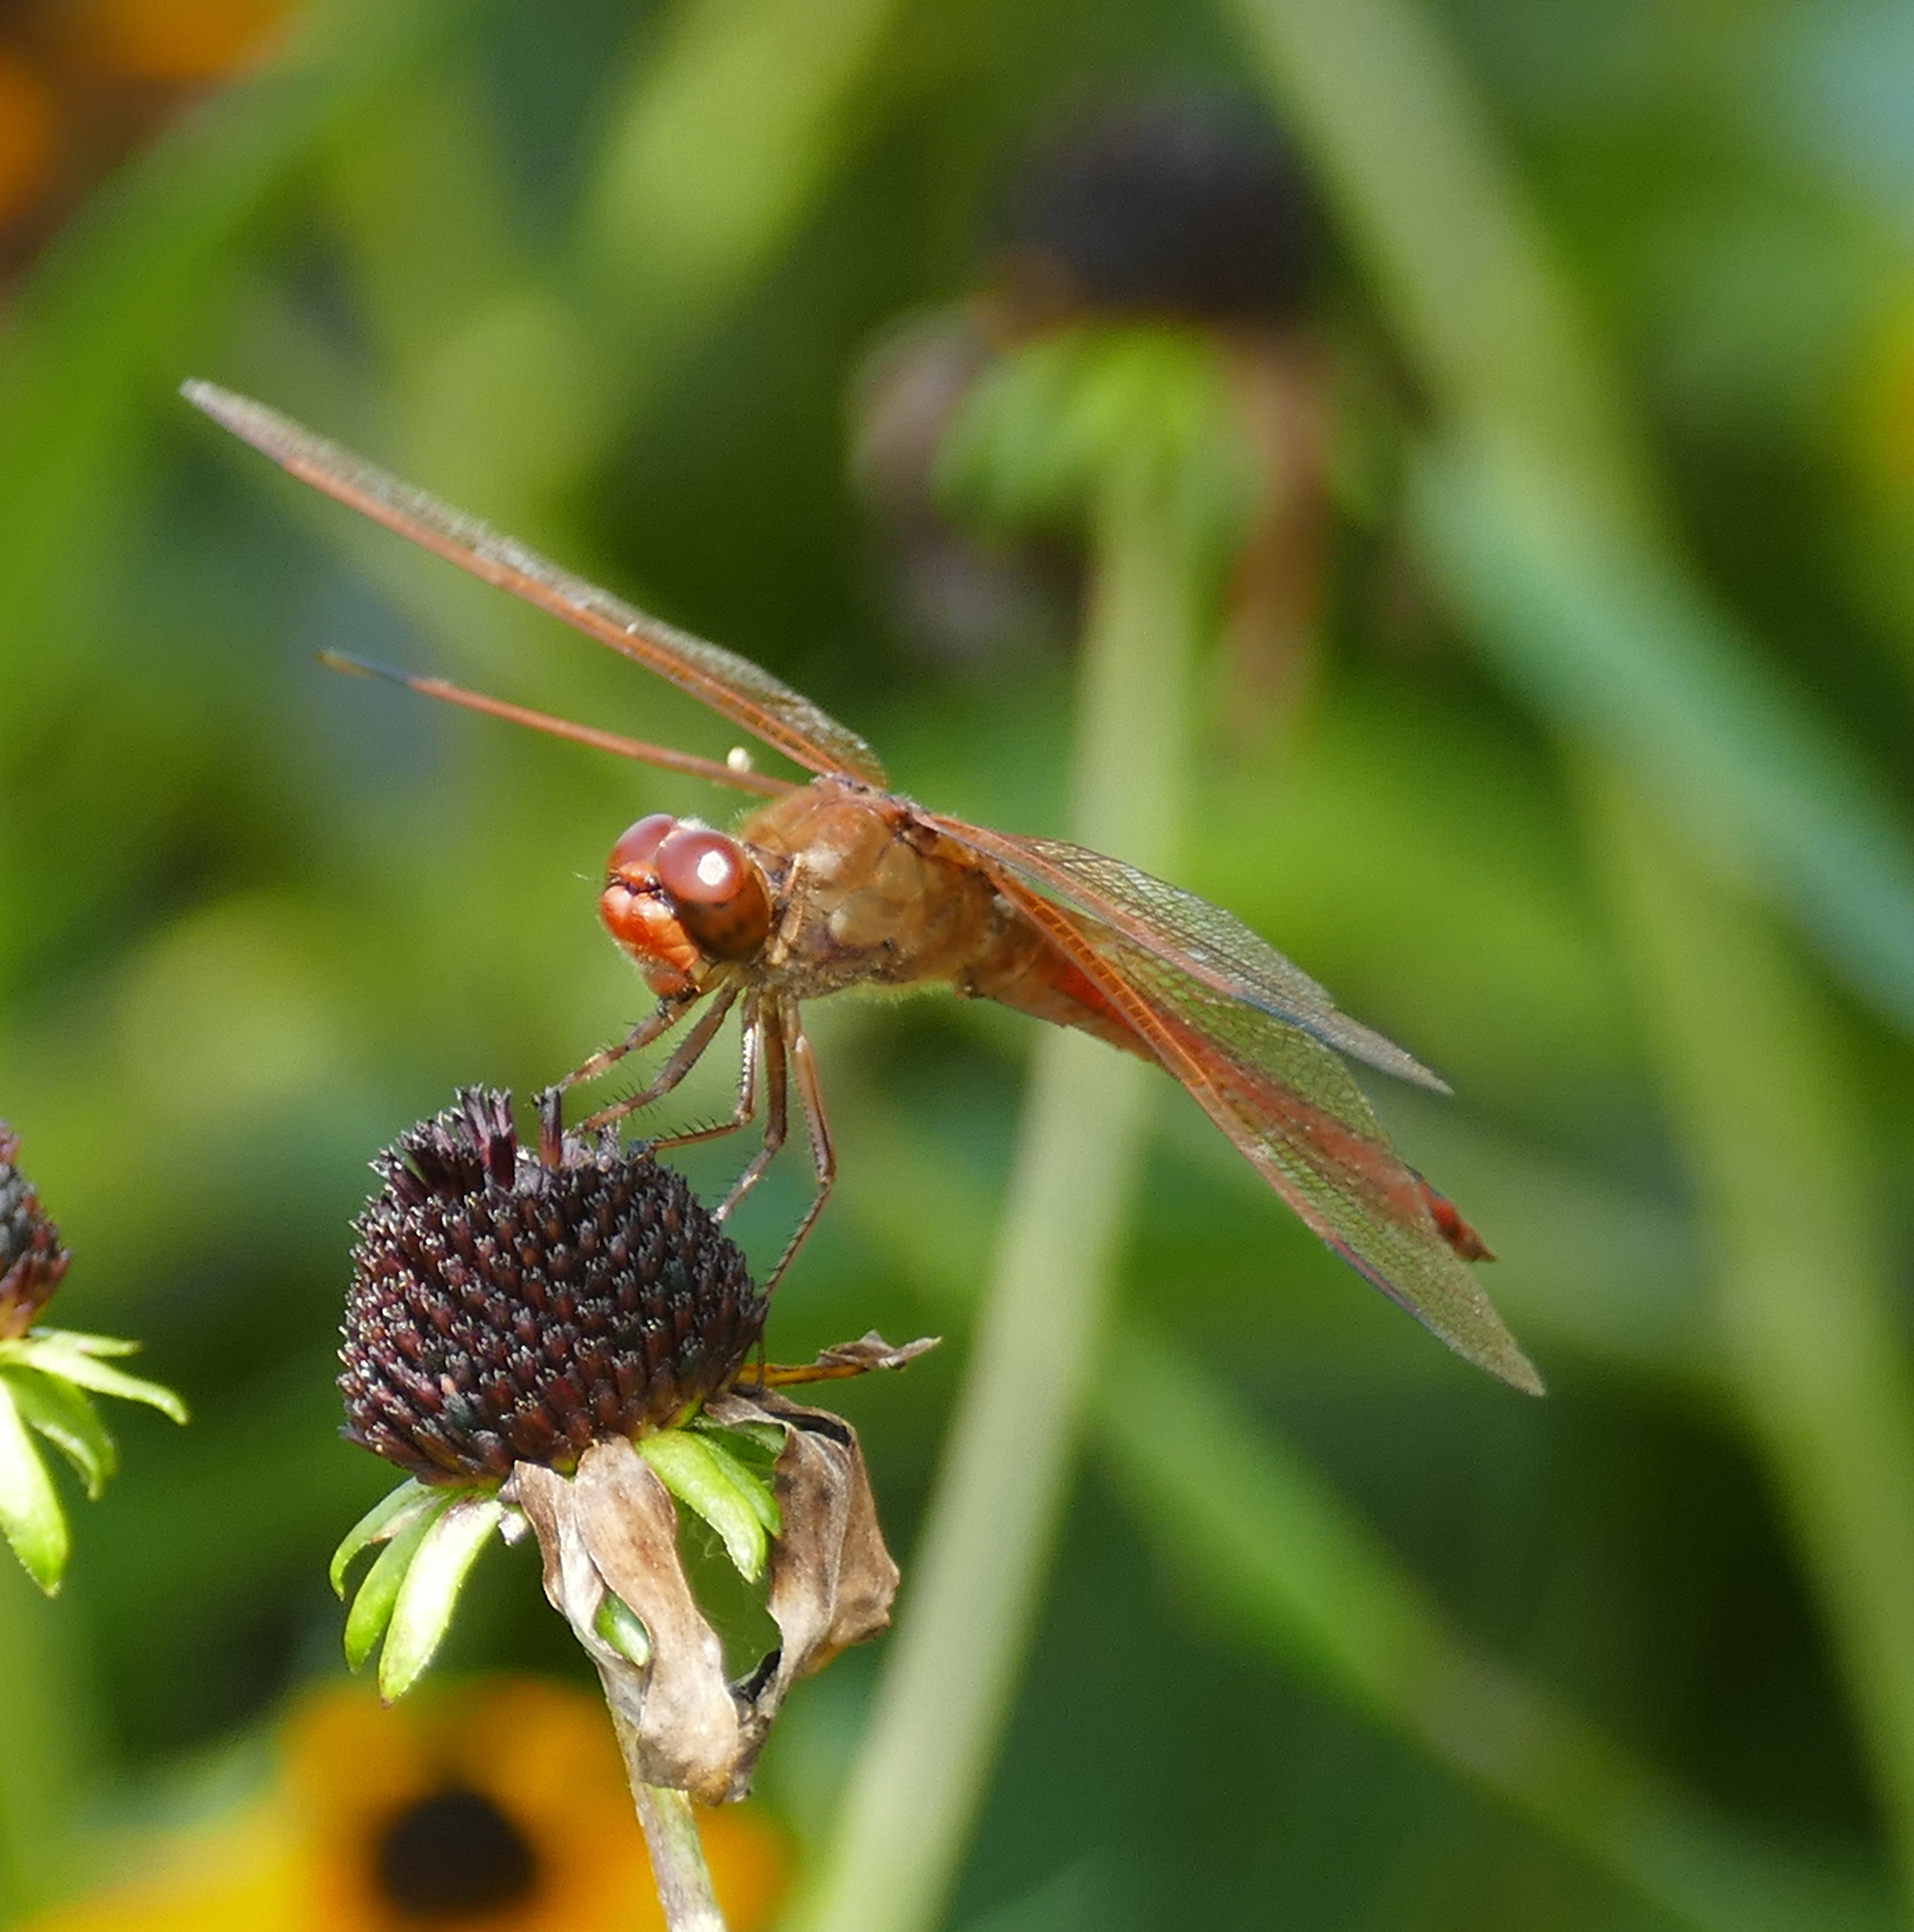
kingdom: Animalia
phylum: Arthropoda
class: Insecta
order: Odonata
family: Libellulidae
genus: Libellula
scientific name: Libellula needhami
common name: Needham's skimmer
